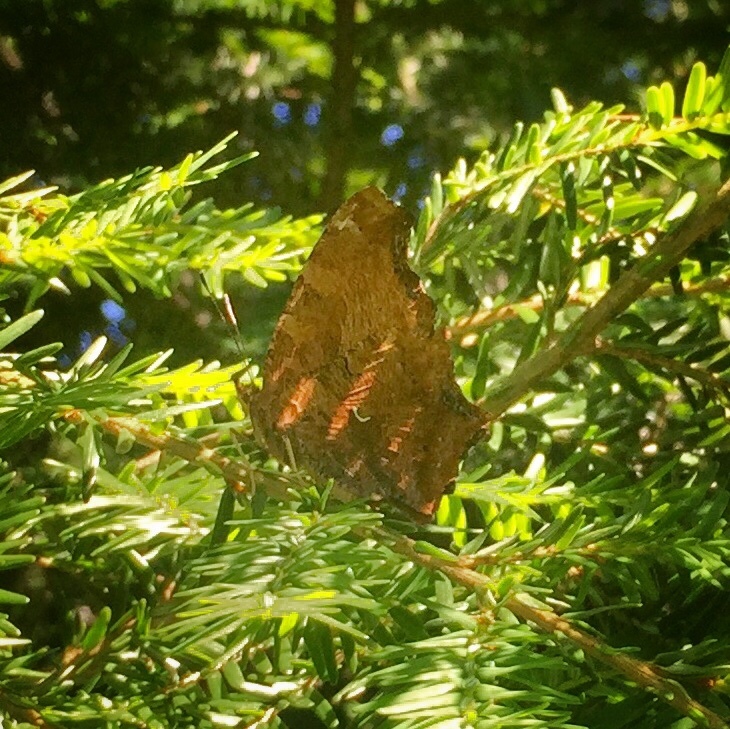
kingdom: Animalia
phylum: Arthropoda
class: Insecta
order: Lepidoptera
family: Nymphalidae
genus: Polygonia
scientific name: Polygonia comma
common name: Eastern comma
